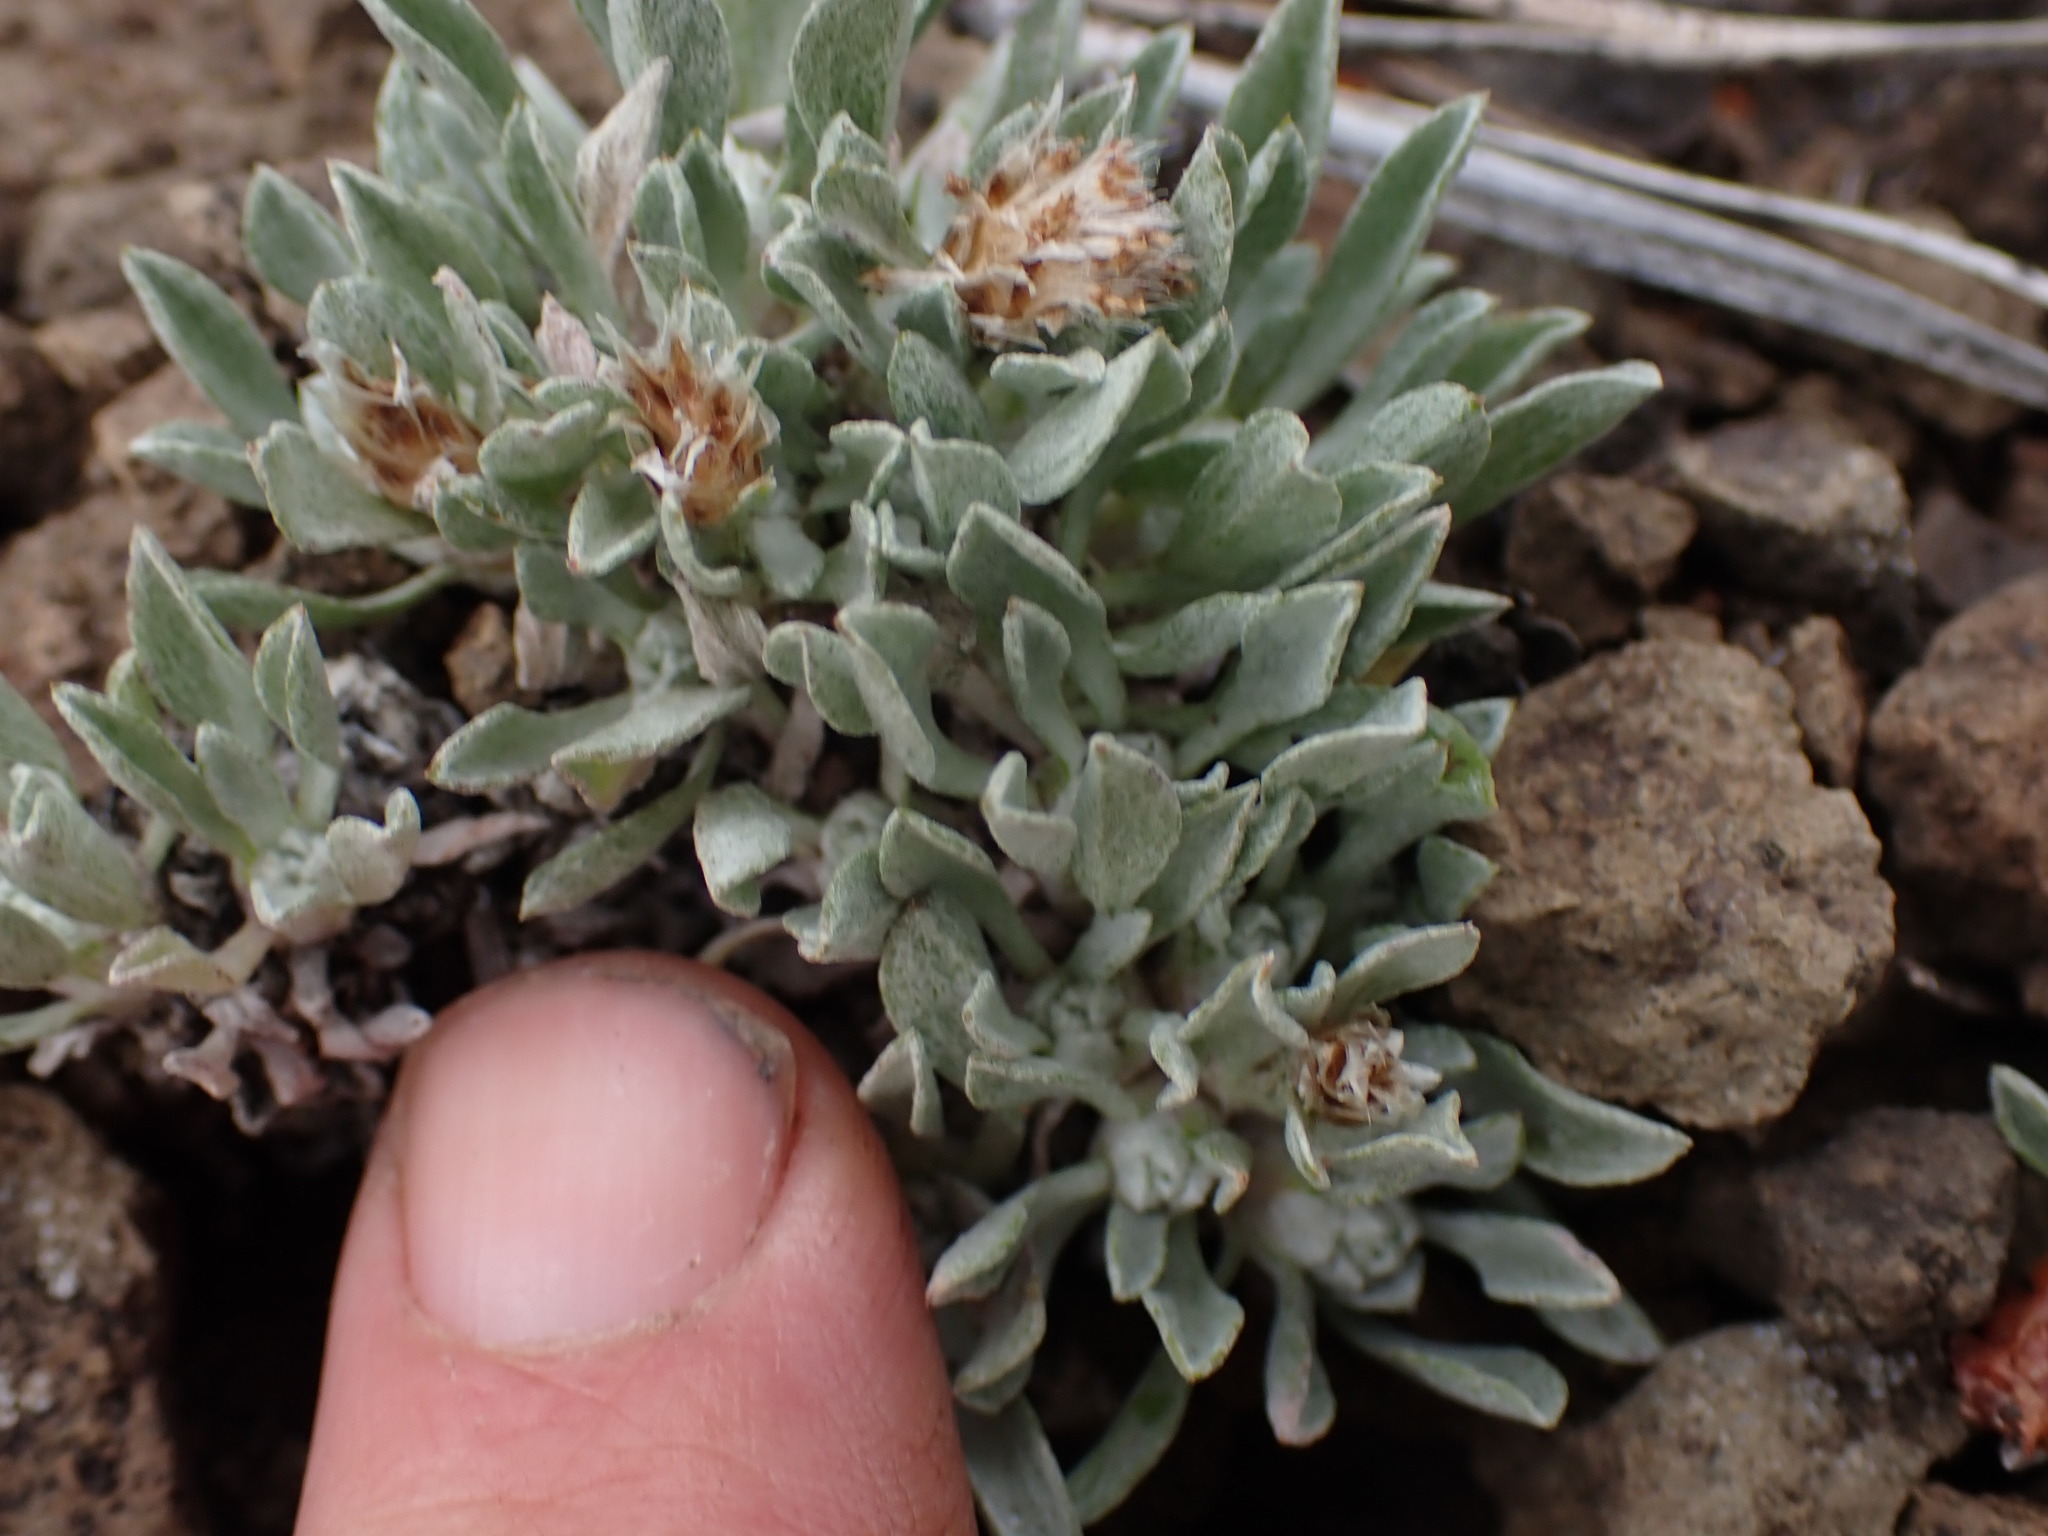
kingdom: Plantae
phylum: Tracheophyta
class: Magnoliopsida
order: Asterales
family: Asteraceae
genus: Antennaria
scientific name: Antennaria dimorpha
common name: Cushion pussytoes
